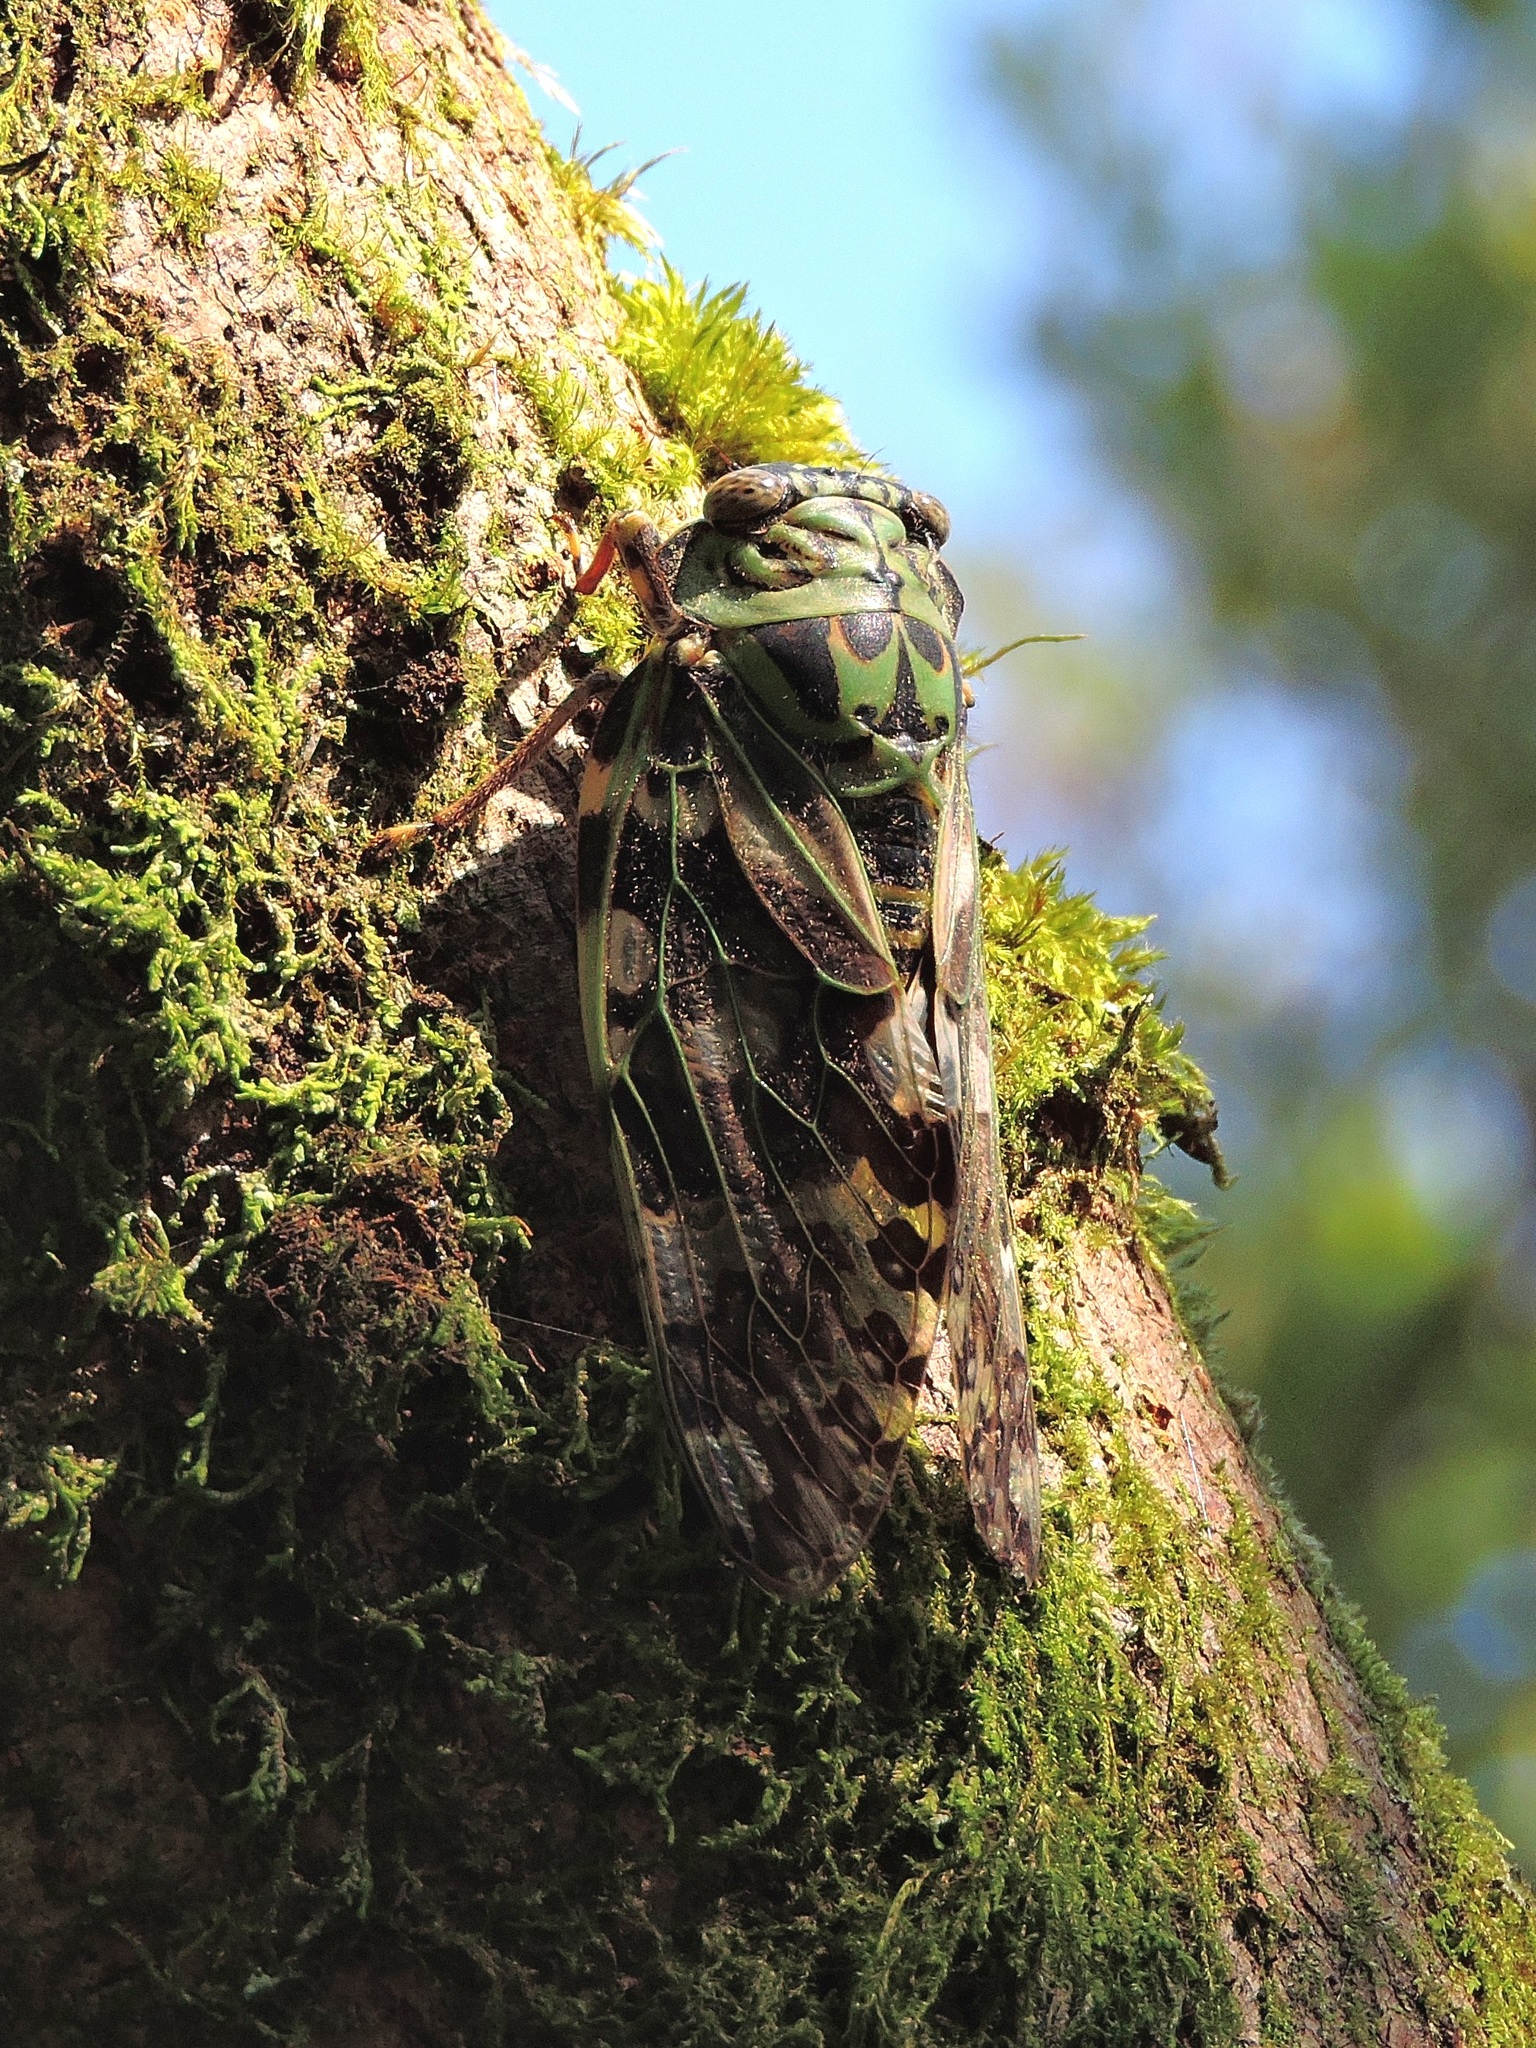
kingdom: Animalia
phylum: Arthropoda
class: Insecta
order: Hemiptera
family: Cicadidae
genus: Platypleura
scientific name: Platypleura kaempferi
